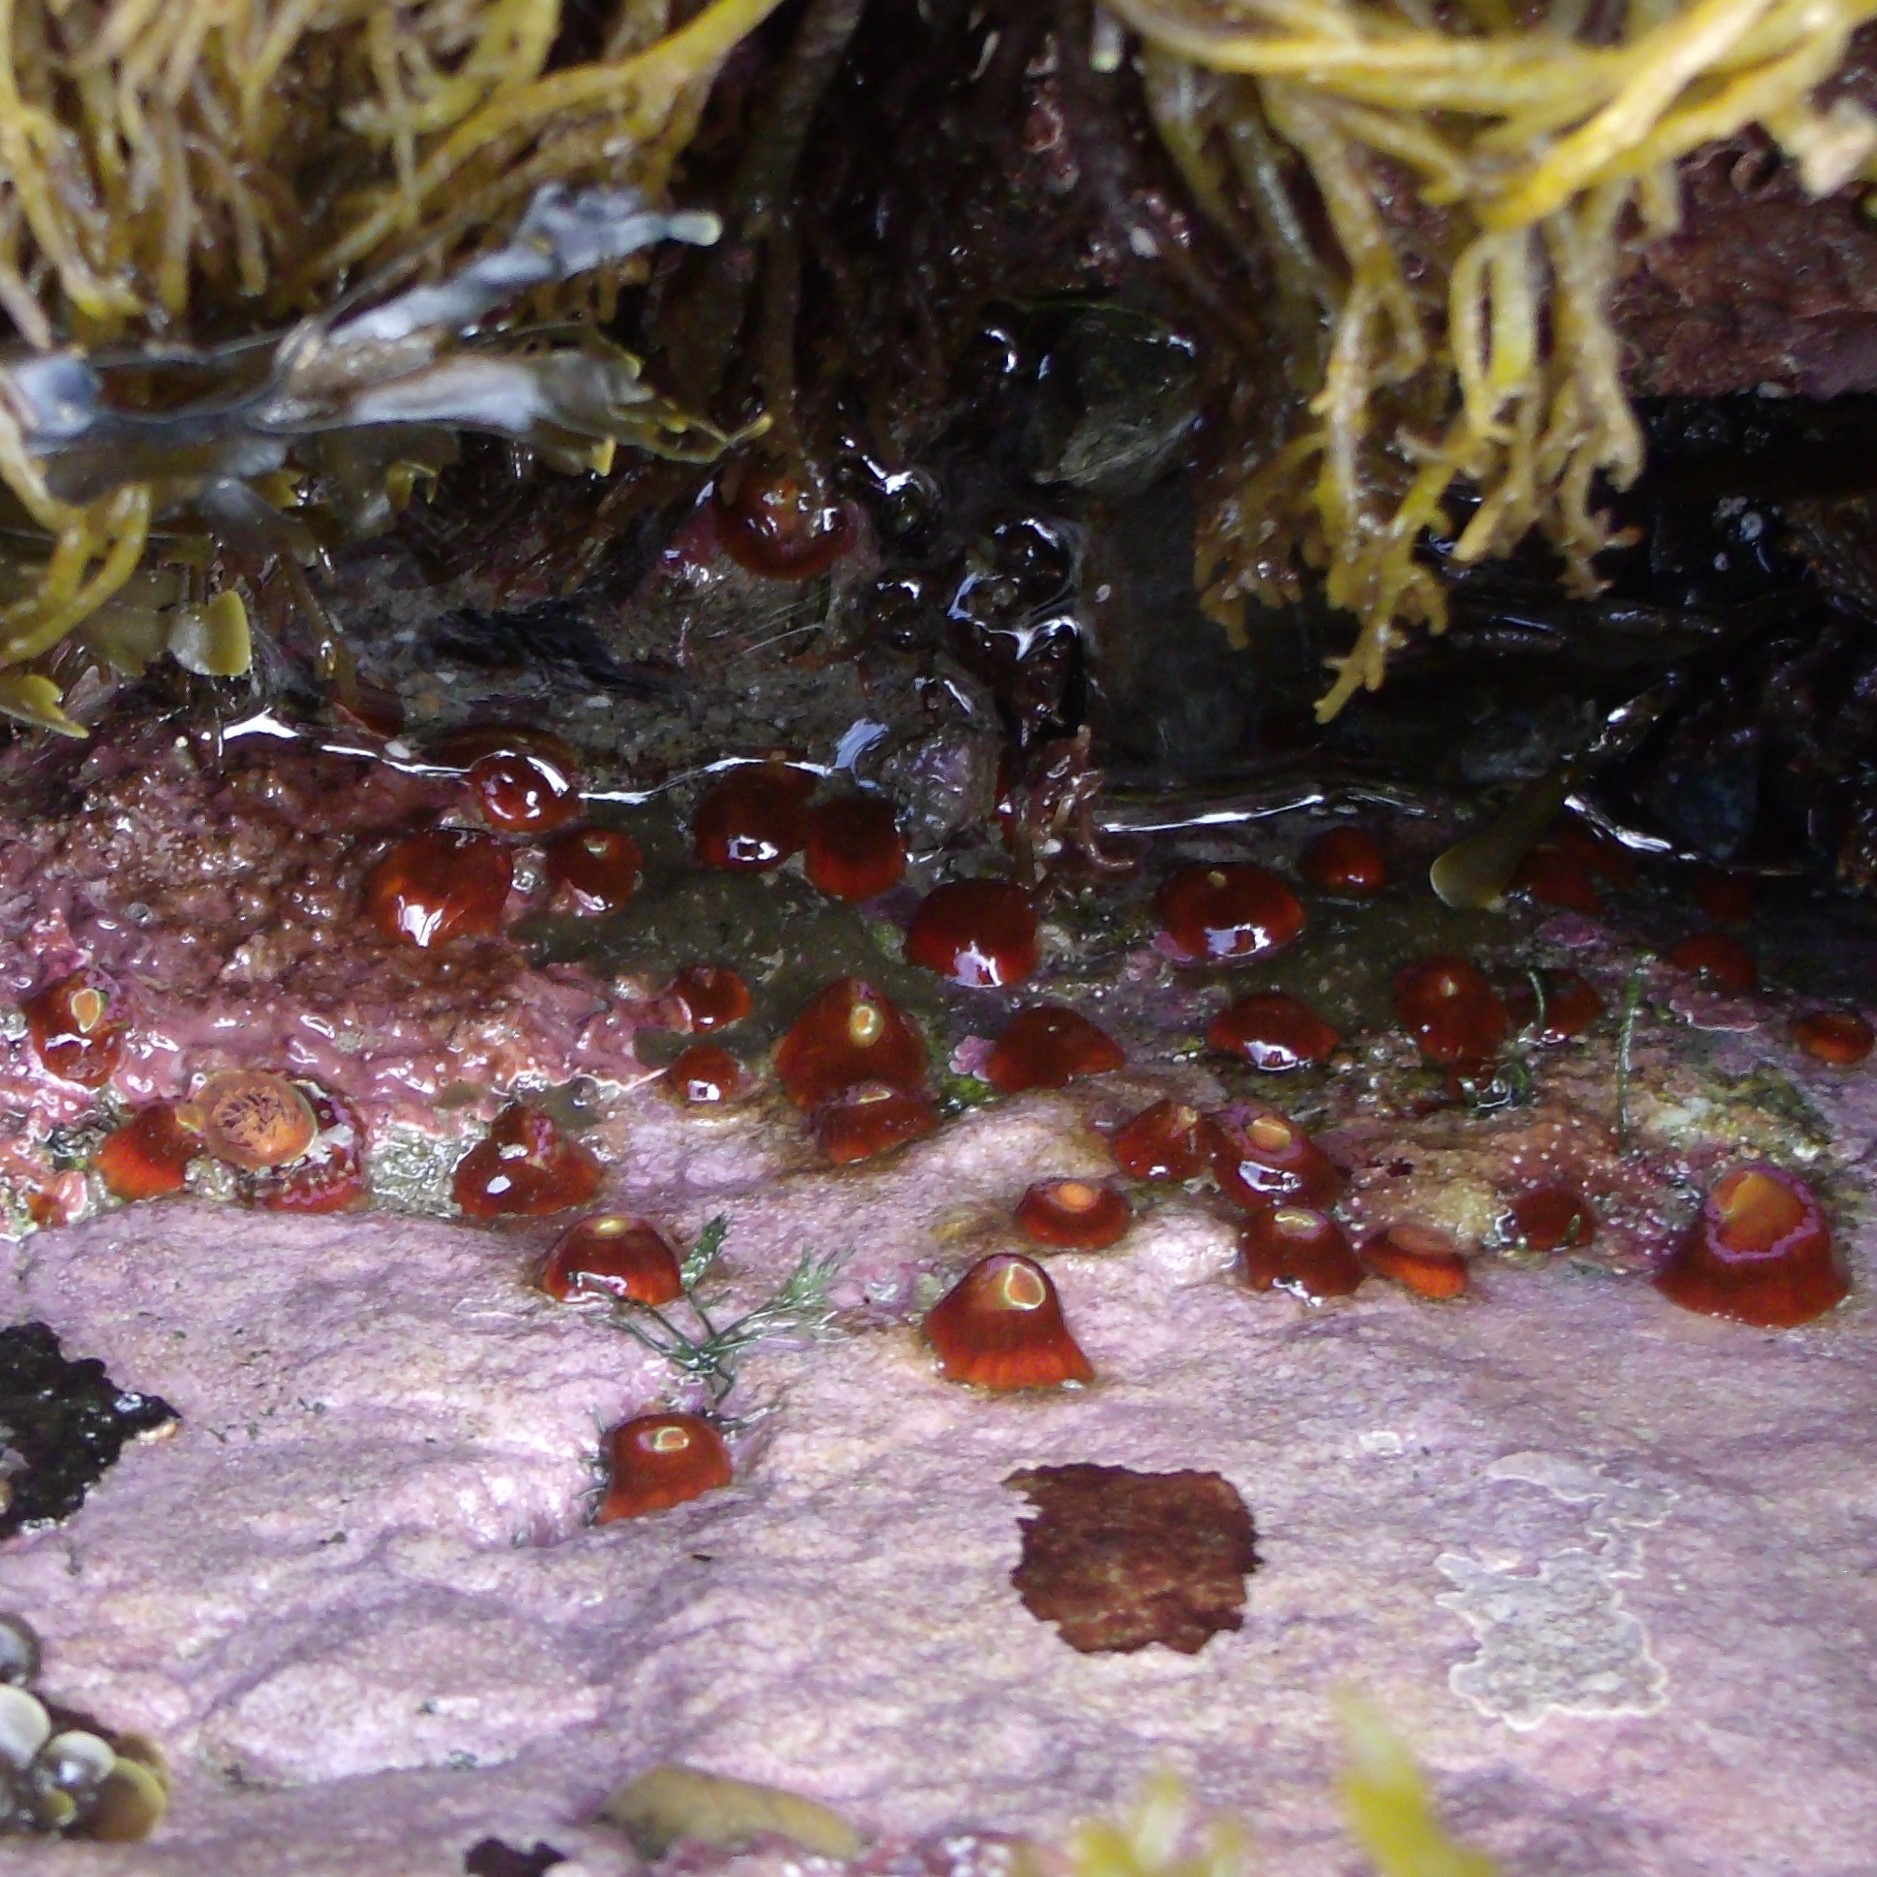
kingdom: Animalia
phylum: Cnidaria
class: Anthozoa
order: Corallimorpharia
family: Corallimorphidae
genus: Corynactis
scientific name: Corynactis australis
